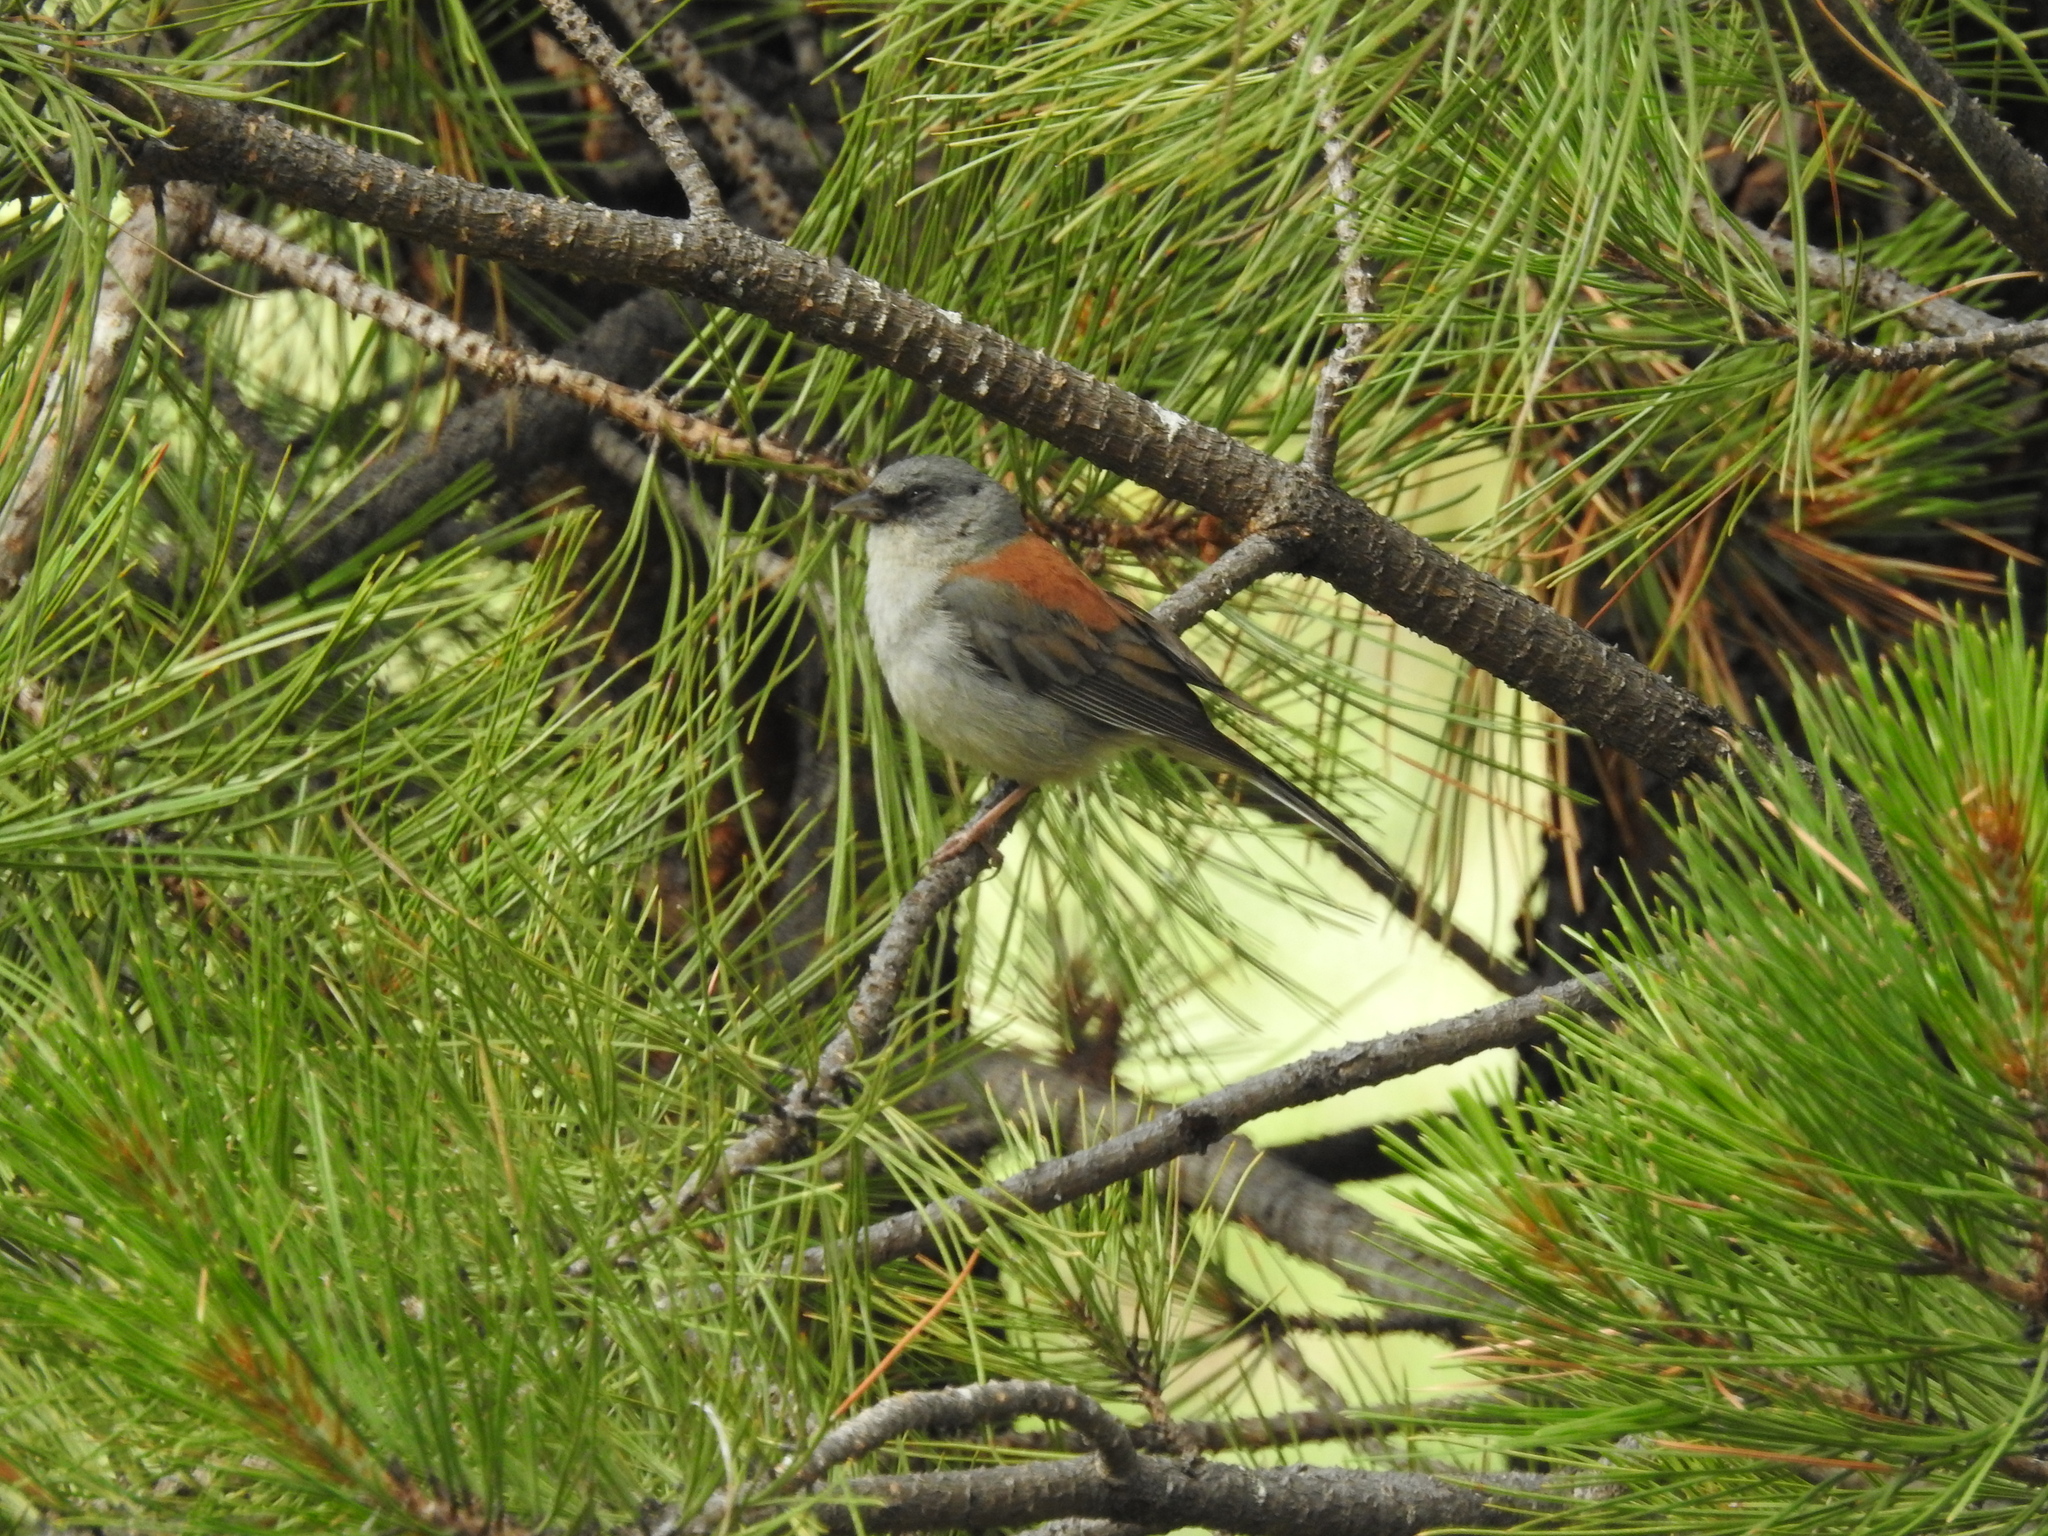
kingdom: Animalia
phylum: Chordata
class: Aves
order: Passeriformes
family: Passerellidae
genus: Junco
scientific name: Junco hyemalis
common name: Dark-eyed junco
